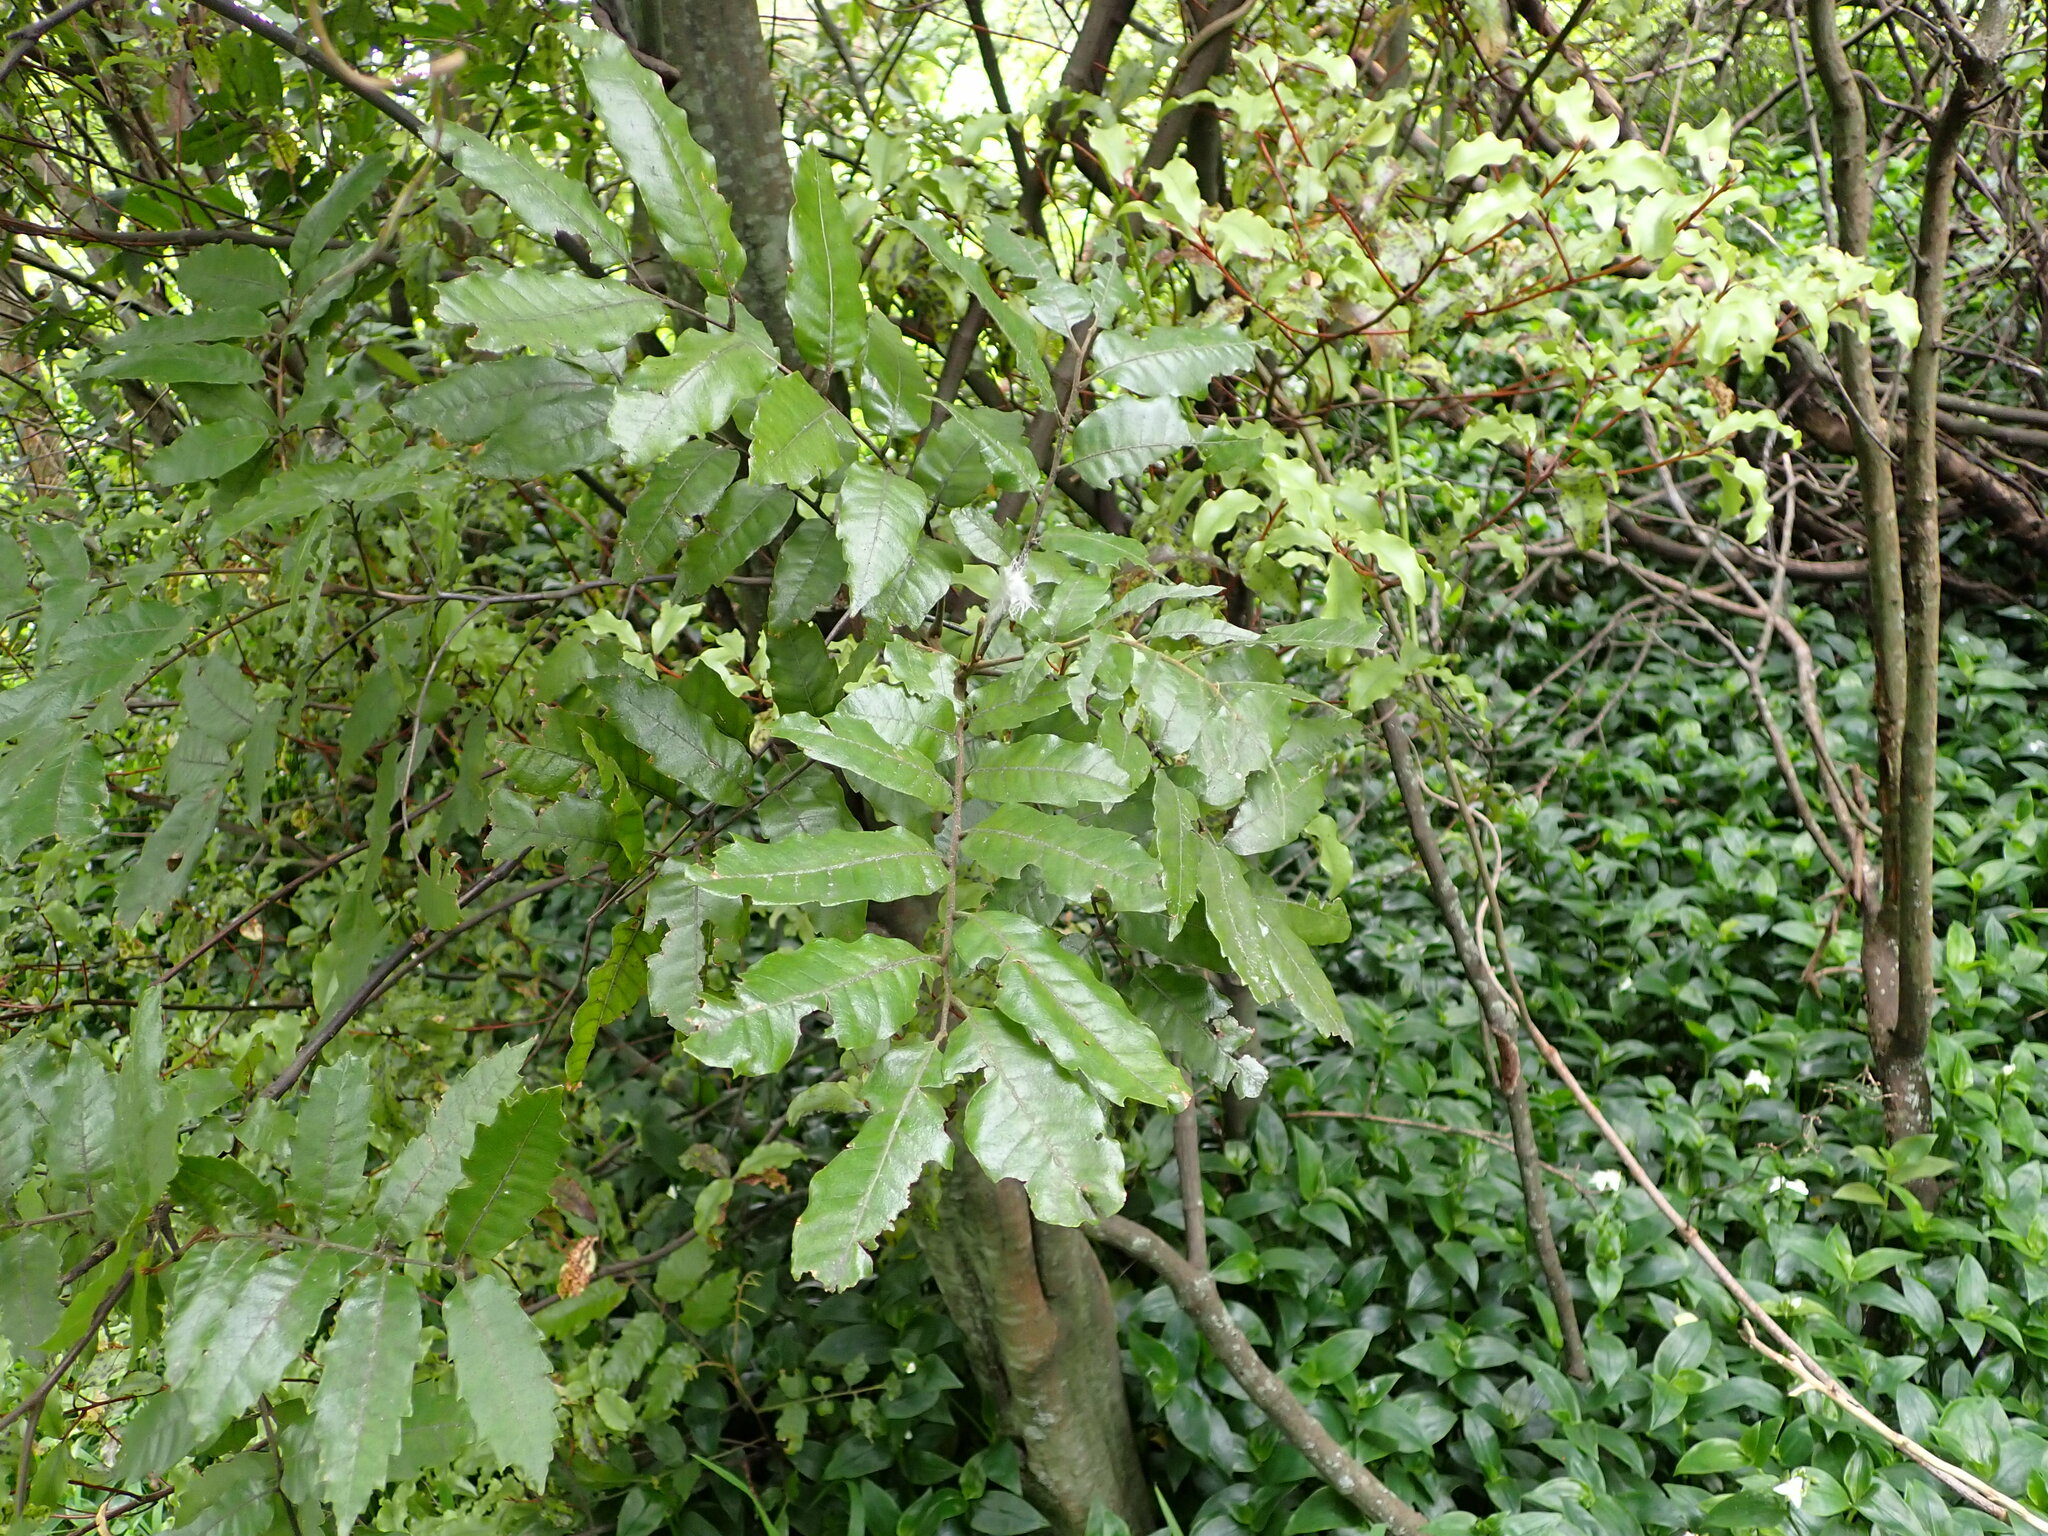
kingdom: Plantae
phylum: Tracheophyta
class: Magnoliopsida
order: Sapindales
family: Sapindaceae
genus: Alectryon
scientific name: Alectryon excelsus
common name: Three kings titoki
